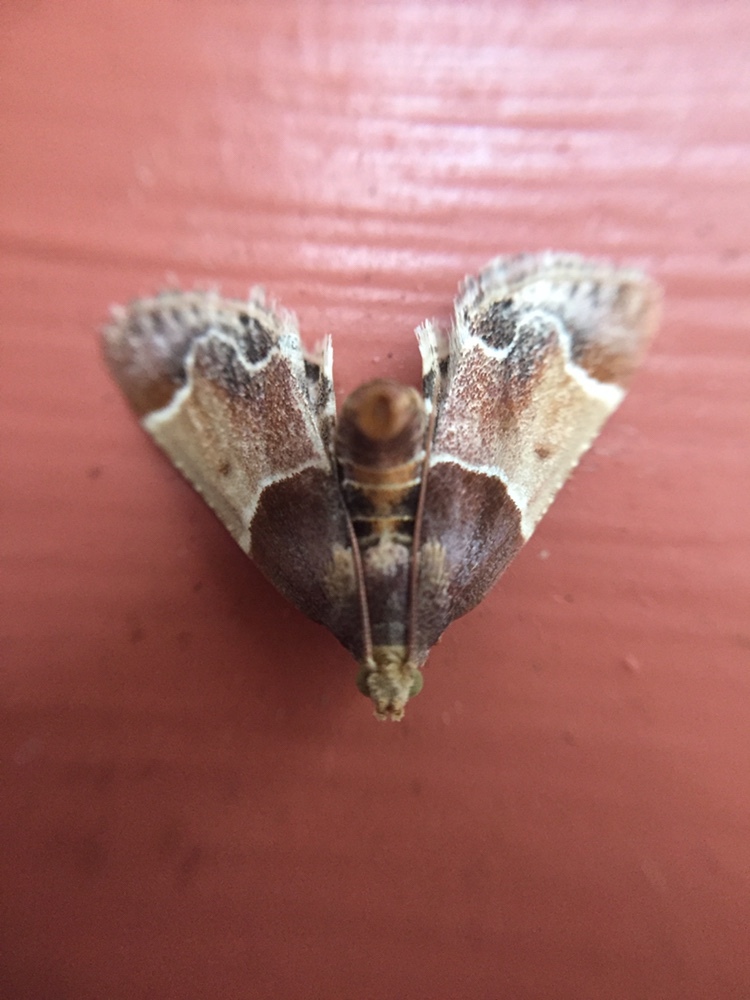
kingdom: Animalia
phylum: Arthropoda
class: Insecta
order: Lepidoptera
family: Pyralidae
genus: Pyralis
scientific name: Pyralis farinalis
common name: Meal moth
